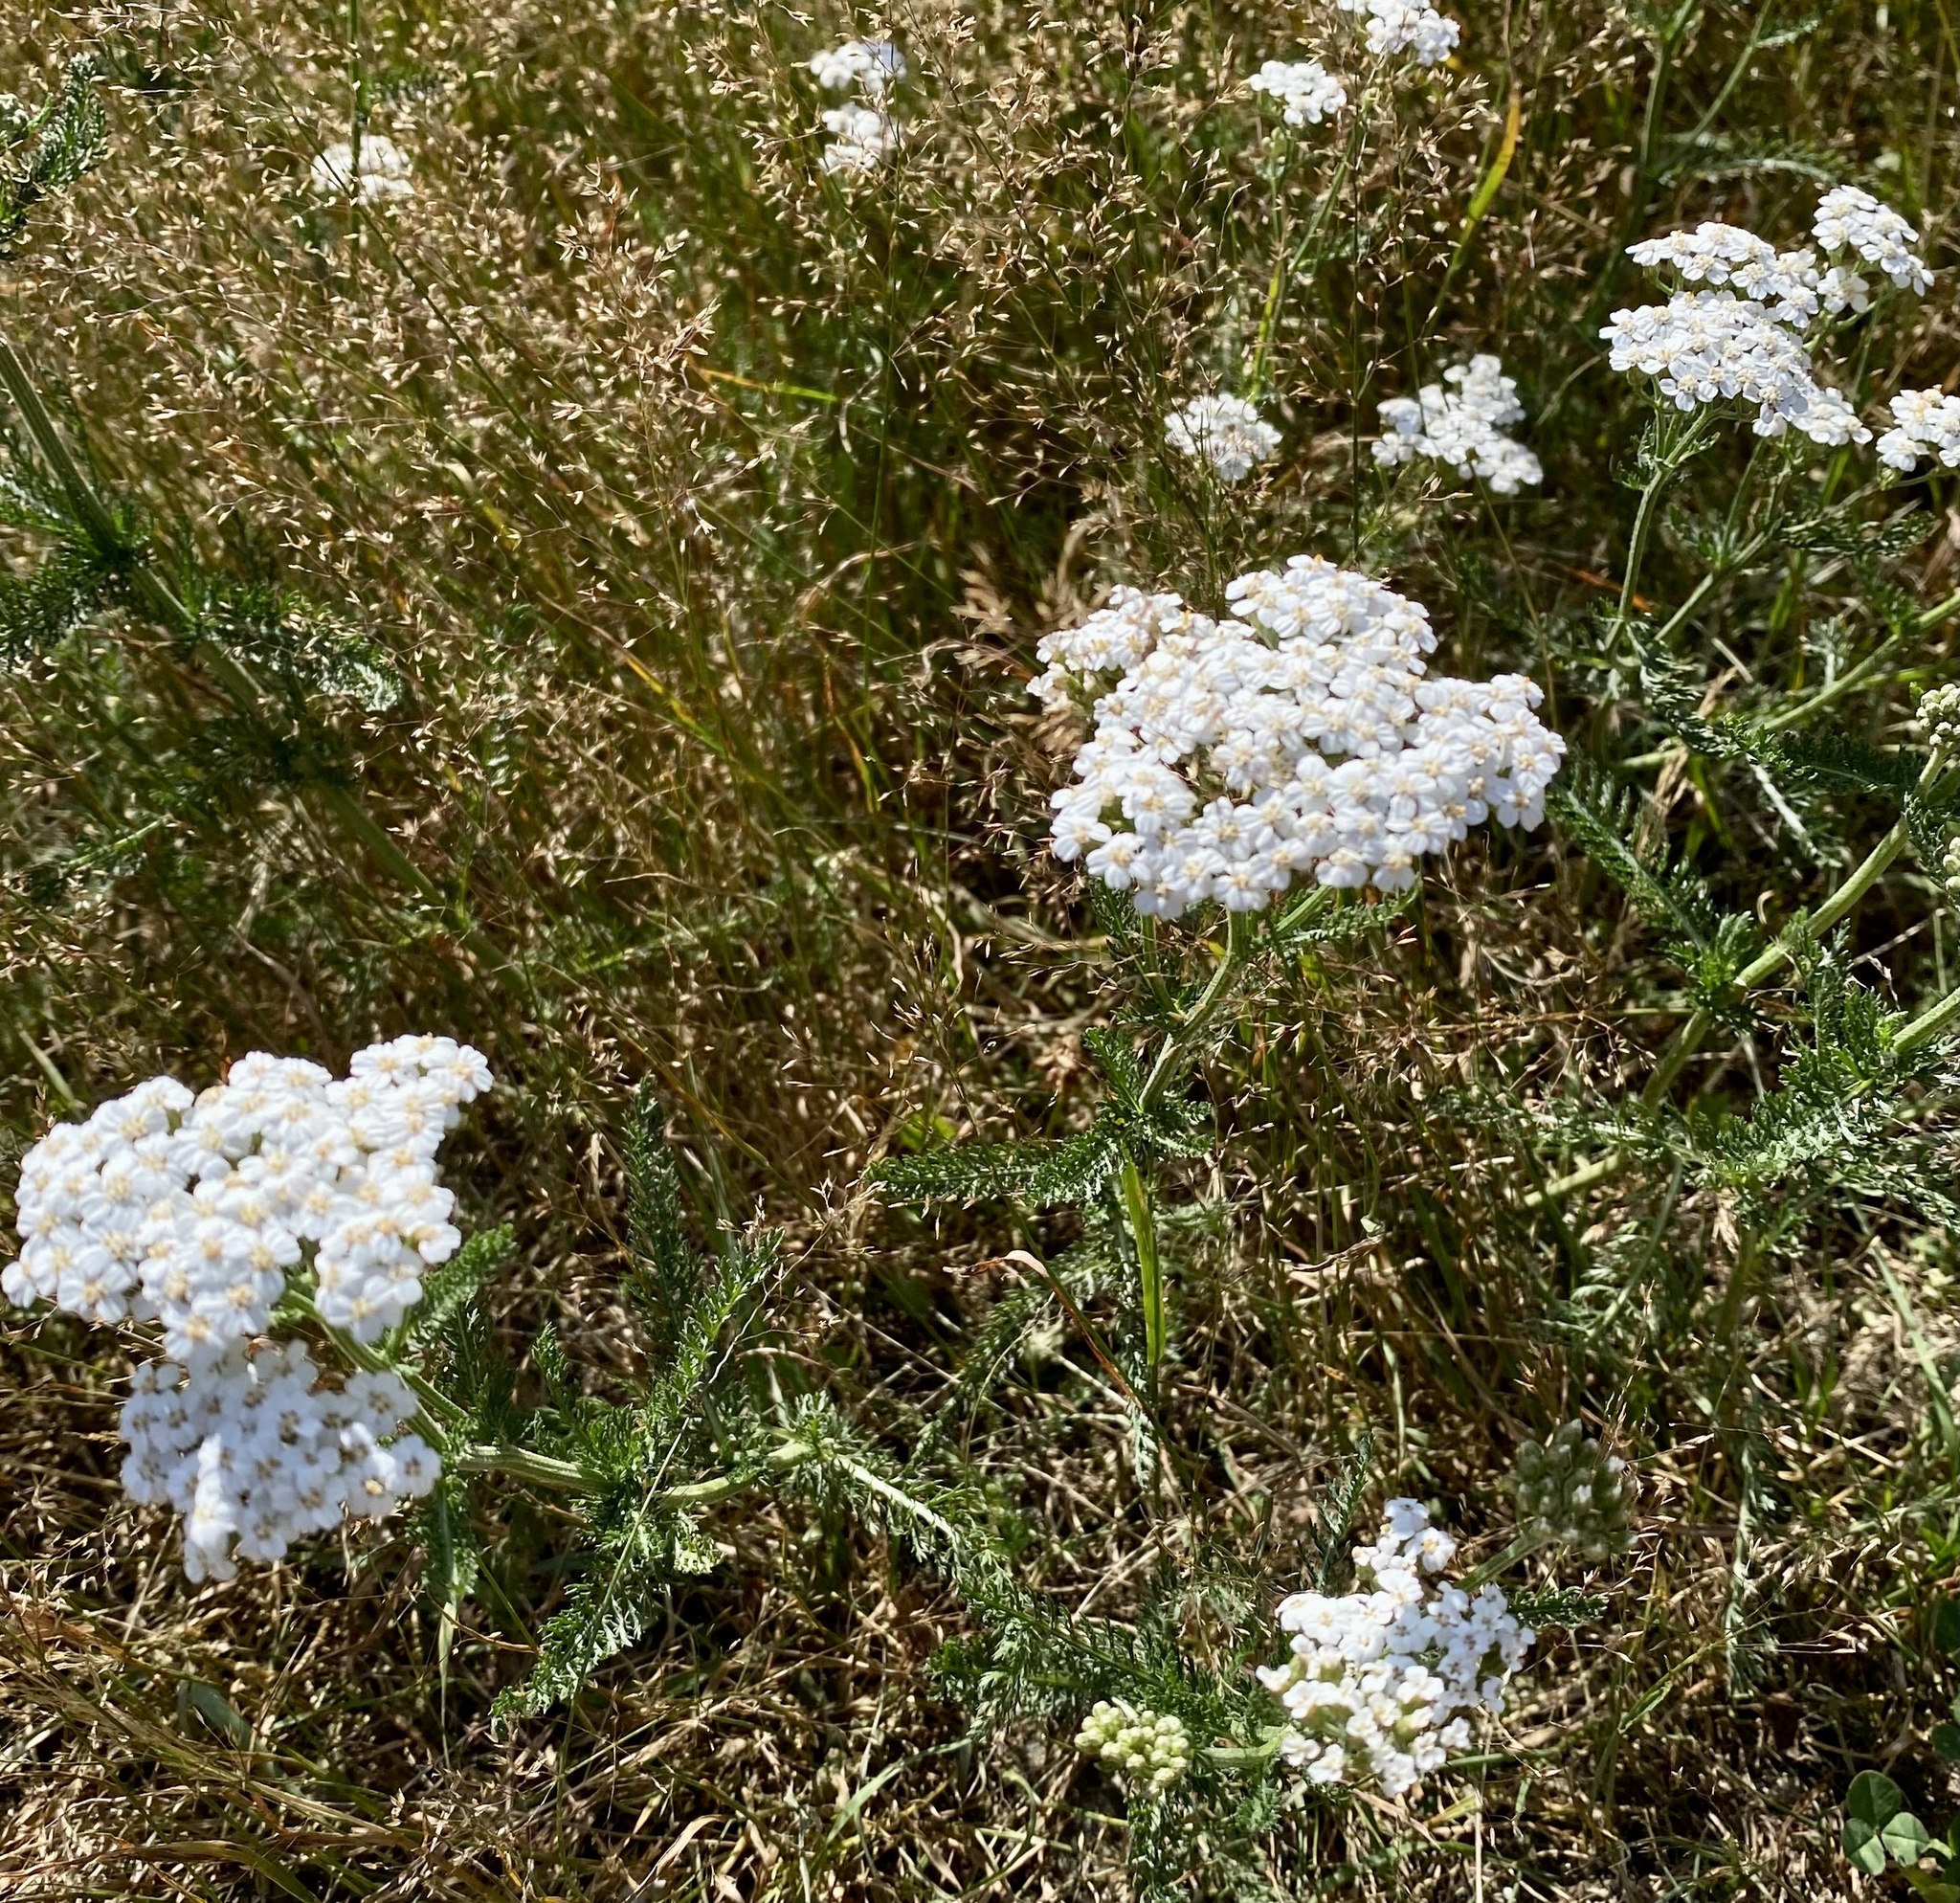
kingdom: Plantae
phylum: Tracheophyta
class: Magnoliopsida
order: Asterales
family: Asteraceae
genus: Achillea
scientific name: Achillea millefolium
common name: Yarrow
